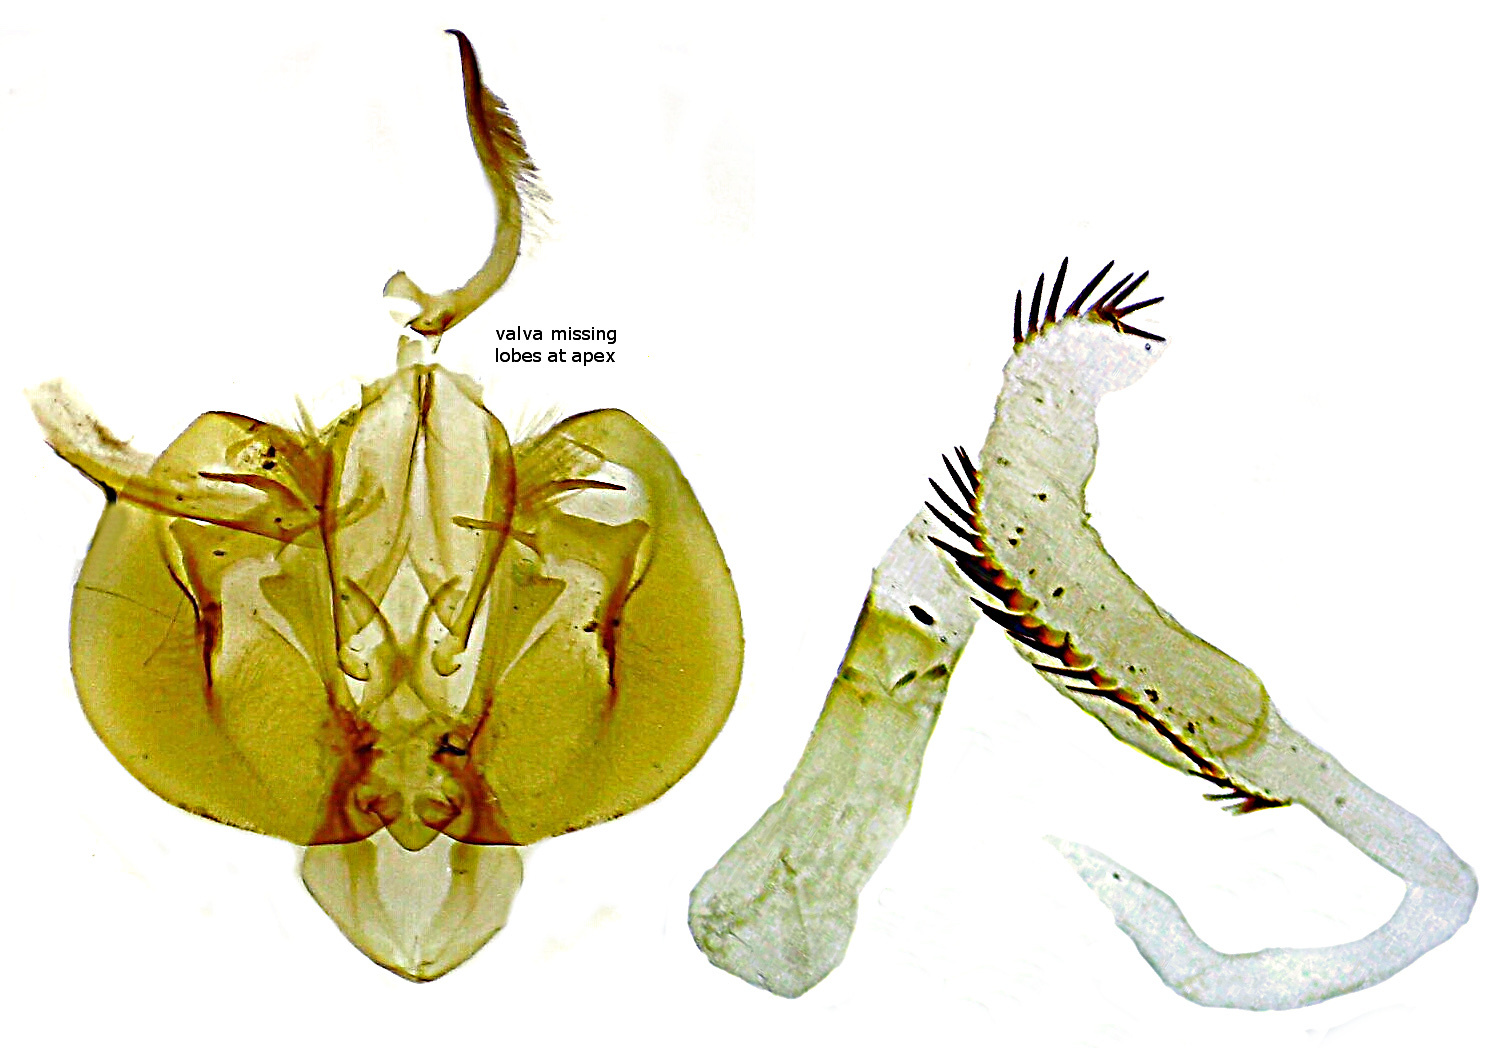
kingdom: Animalia
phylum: Arthropoda
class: Insecta
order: Lepidoptera
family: Noctuidae
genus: Leucania
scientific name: Leucania linita
